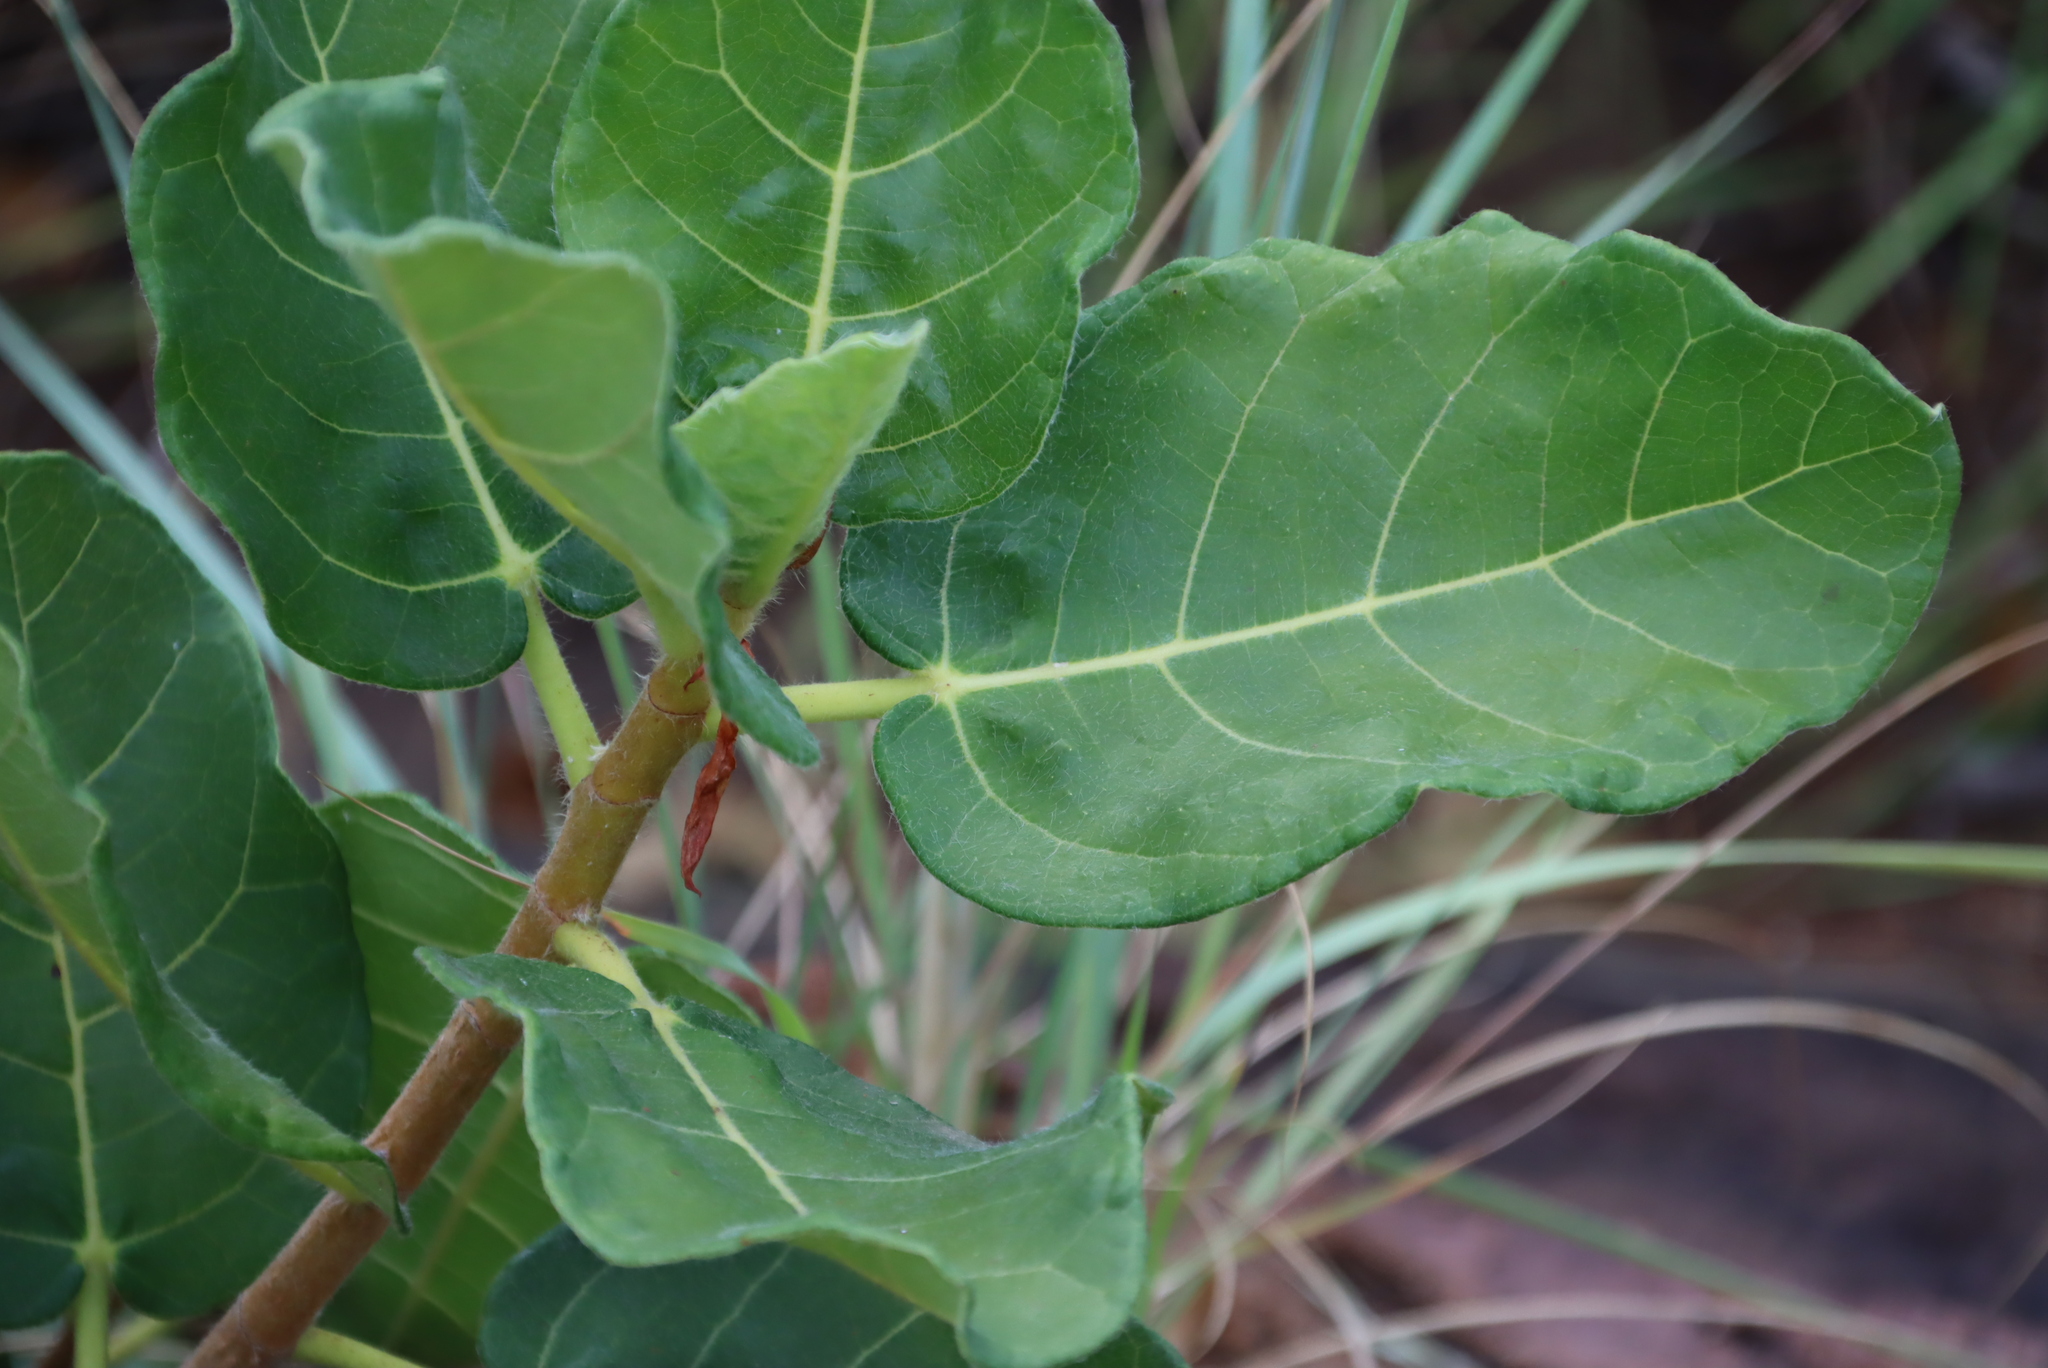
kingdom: Plantae
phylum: Tracheophyta
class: Magnoliopsida
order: Rosales
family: Moraceae
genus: Ficus
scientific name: Ficus glumosa
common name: Hairy rock fig
